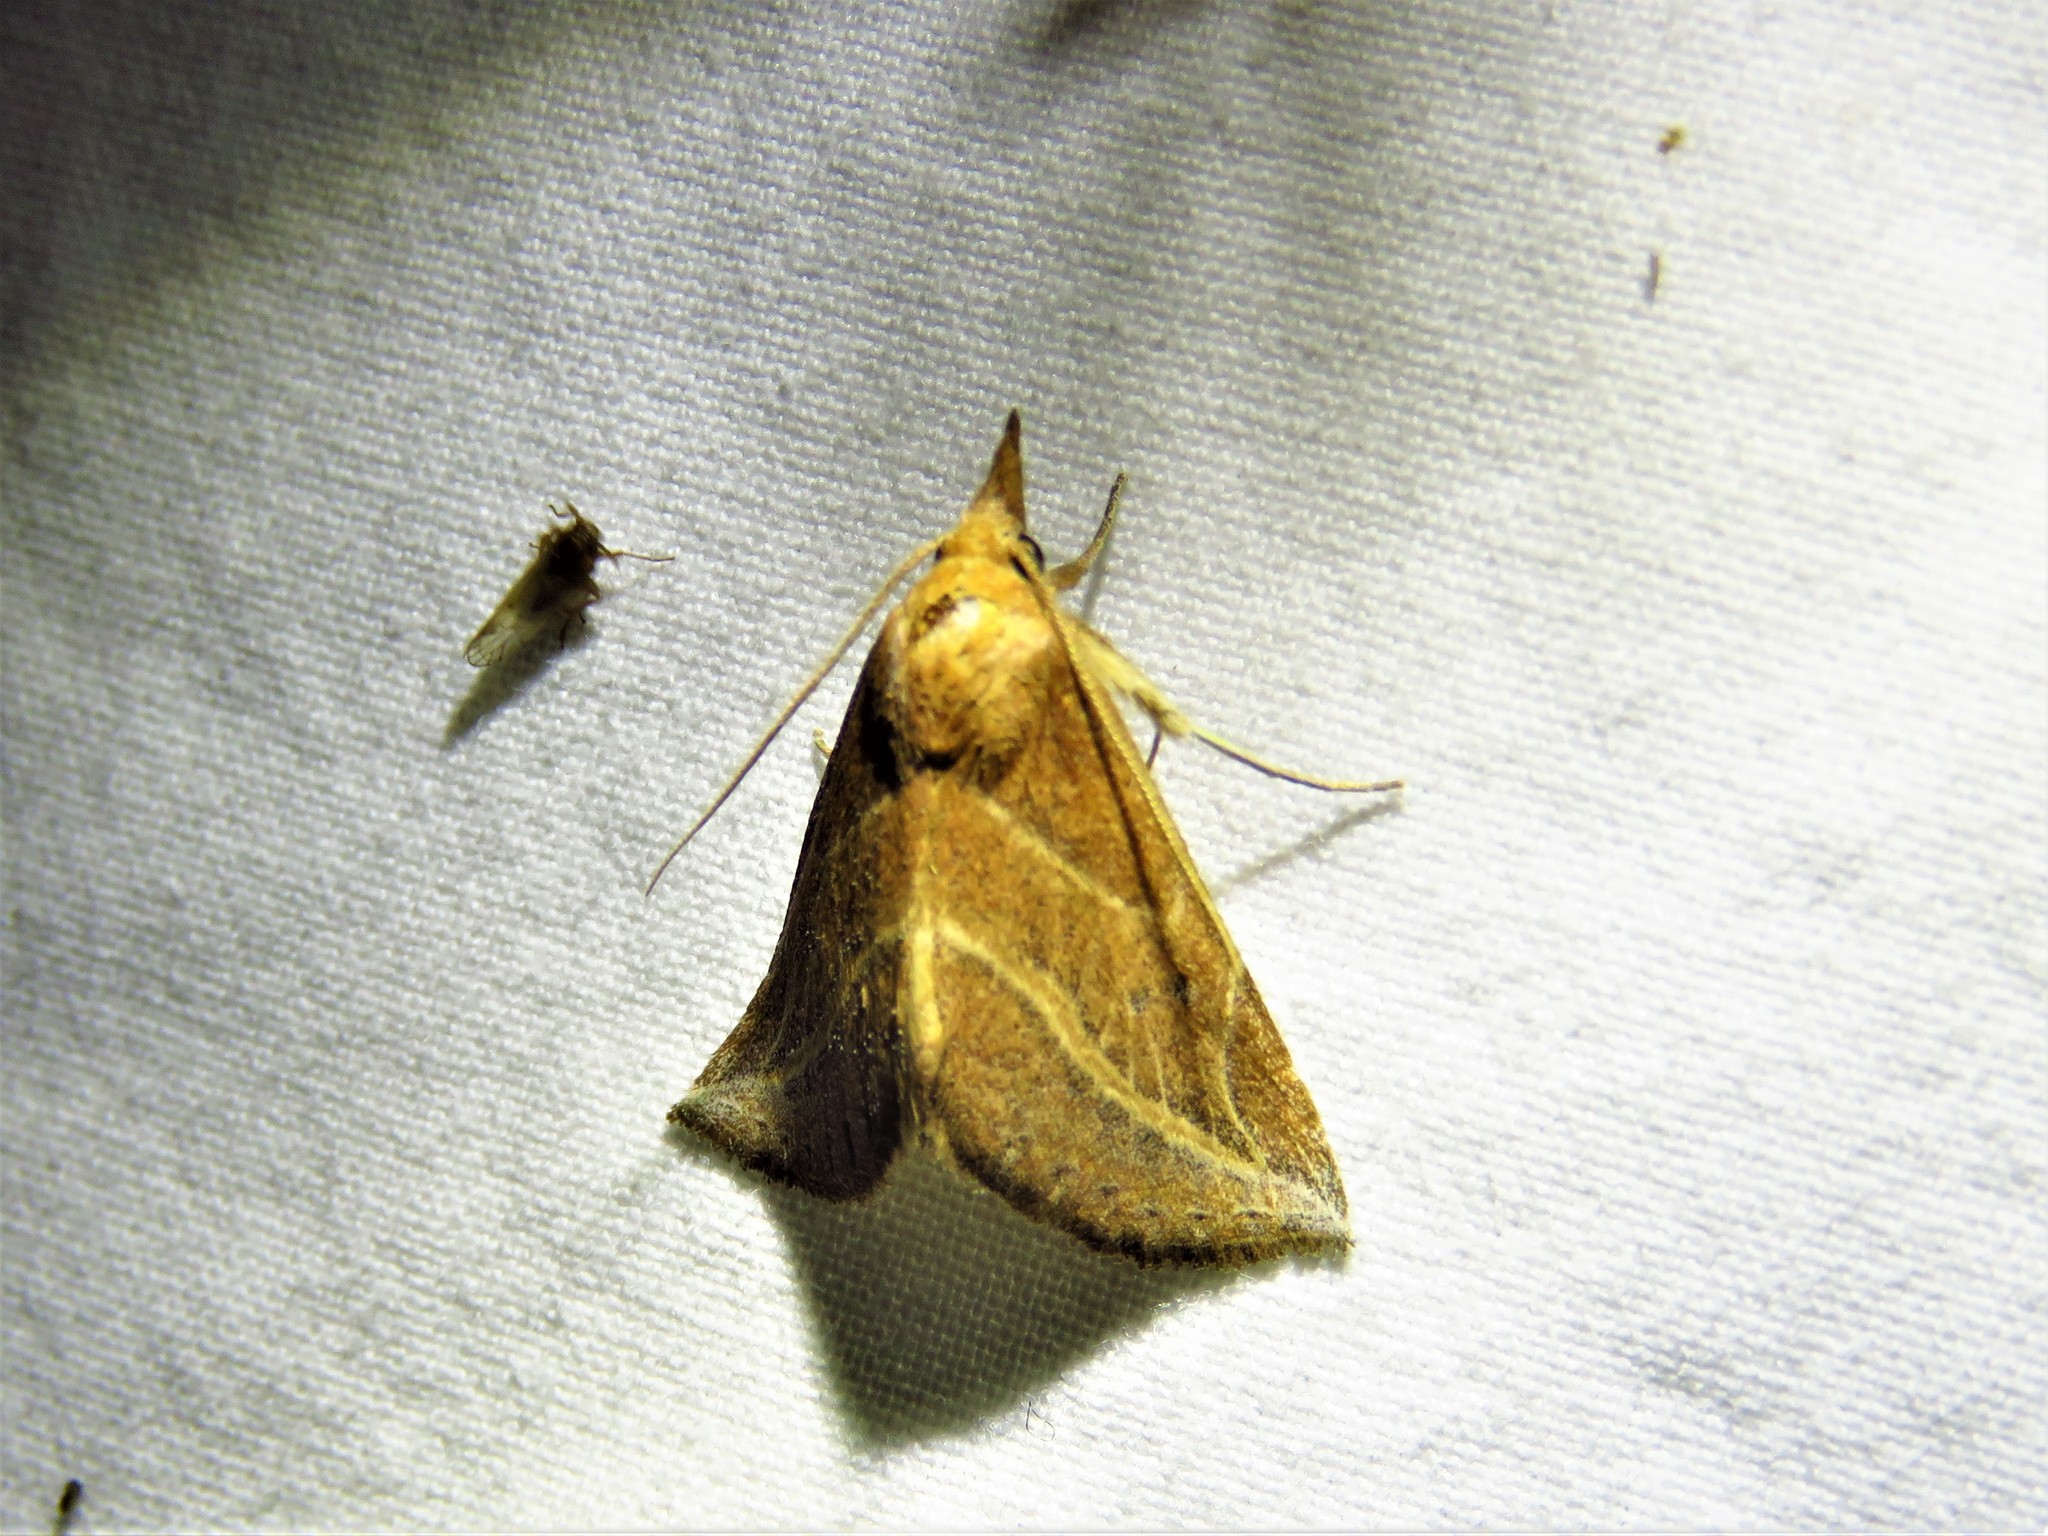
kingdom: Animalia
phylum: Arthropoda
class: Insecta
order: Lepidoptera
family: Erebidae
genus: Phyprosopus
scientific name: Phyprosopus callitrichoides
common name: Curved-lined owlet
